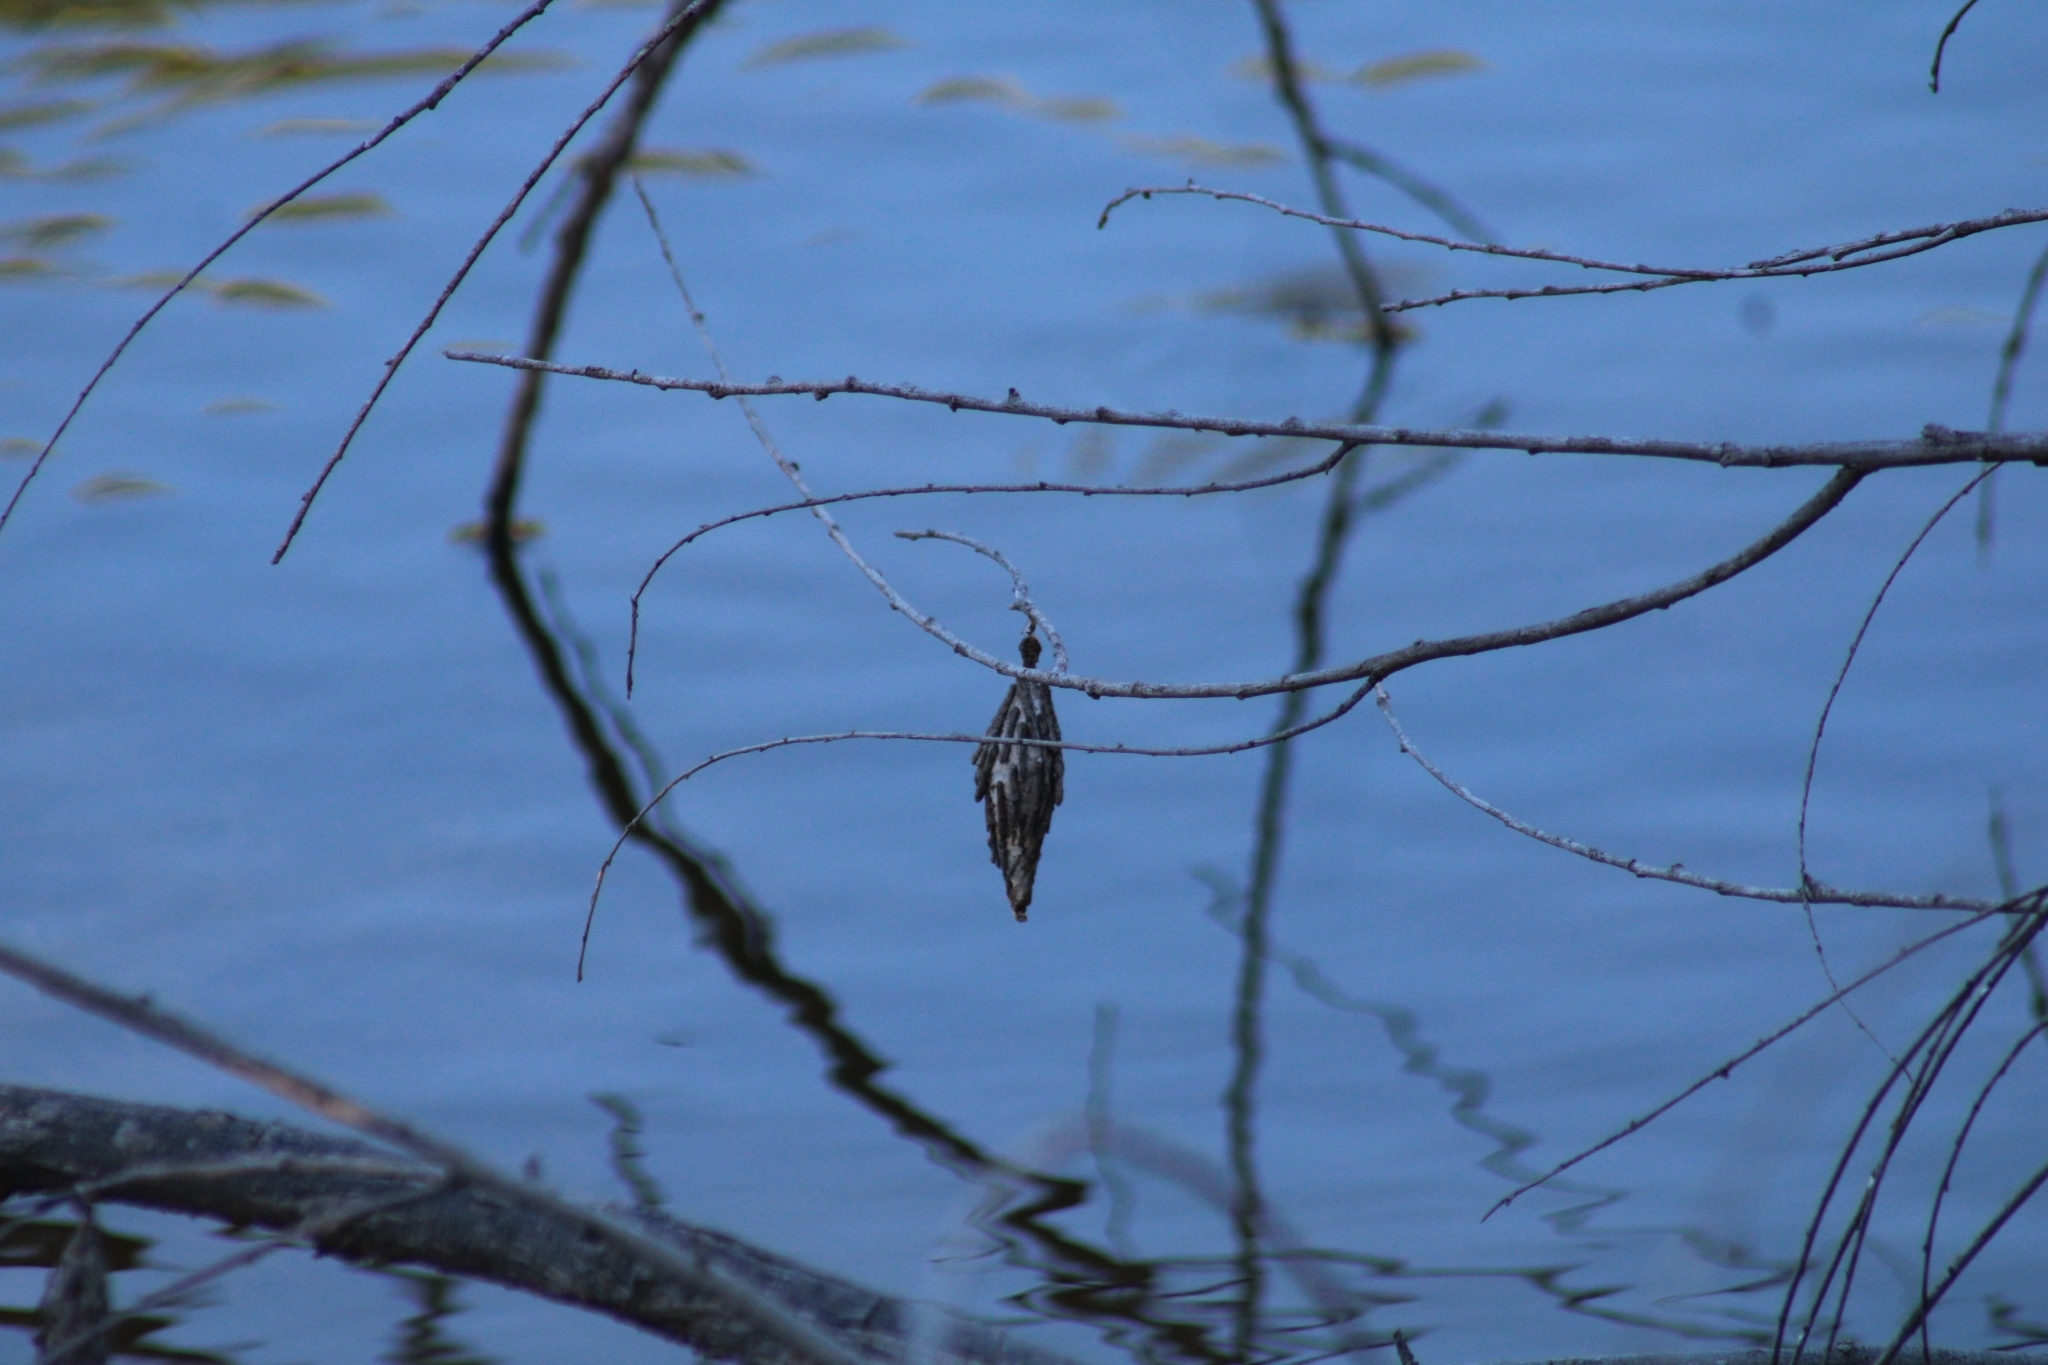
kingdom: Animalia
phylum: Arthropoda
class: Insecta
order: Lepidoptera
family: Psychidae
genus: Thyridopteryx
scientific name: Thyridopteryx ephemeraeformis
